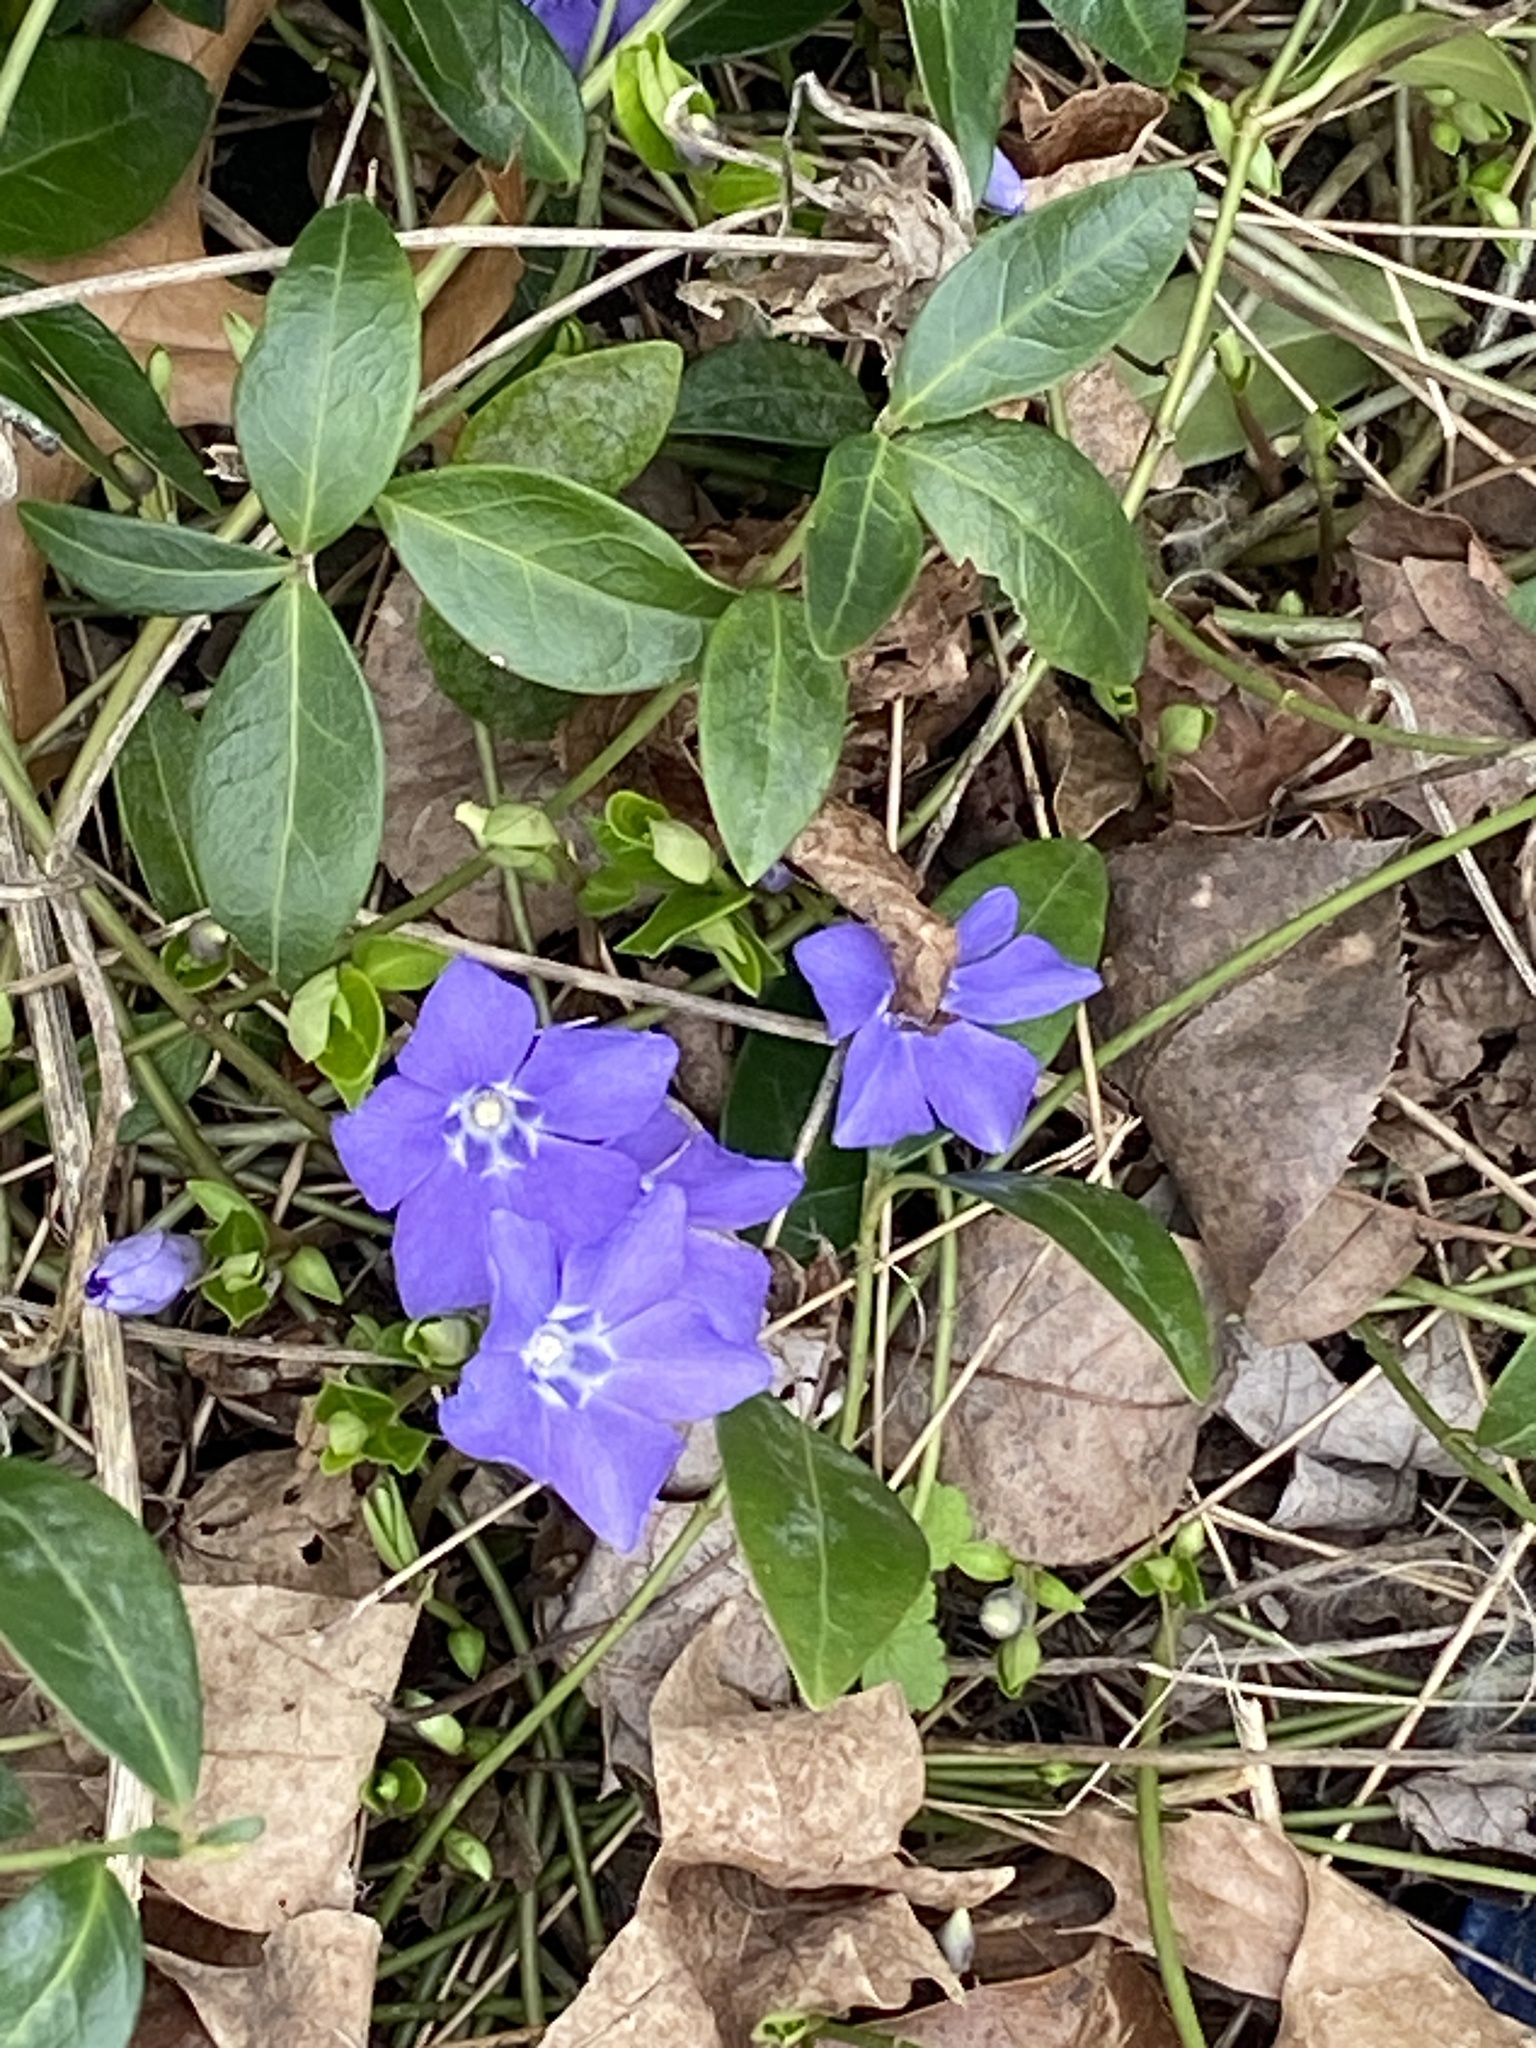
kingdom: Plantae
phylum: Tracheophyta
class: Magnoliopsida
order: Gentianales
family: Apocynaceae
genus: Vinca
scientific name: Vinca minor
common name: Lesser periwinkle
